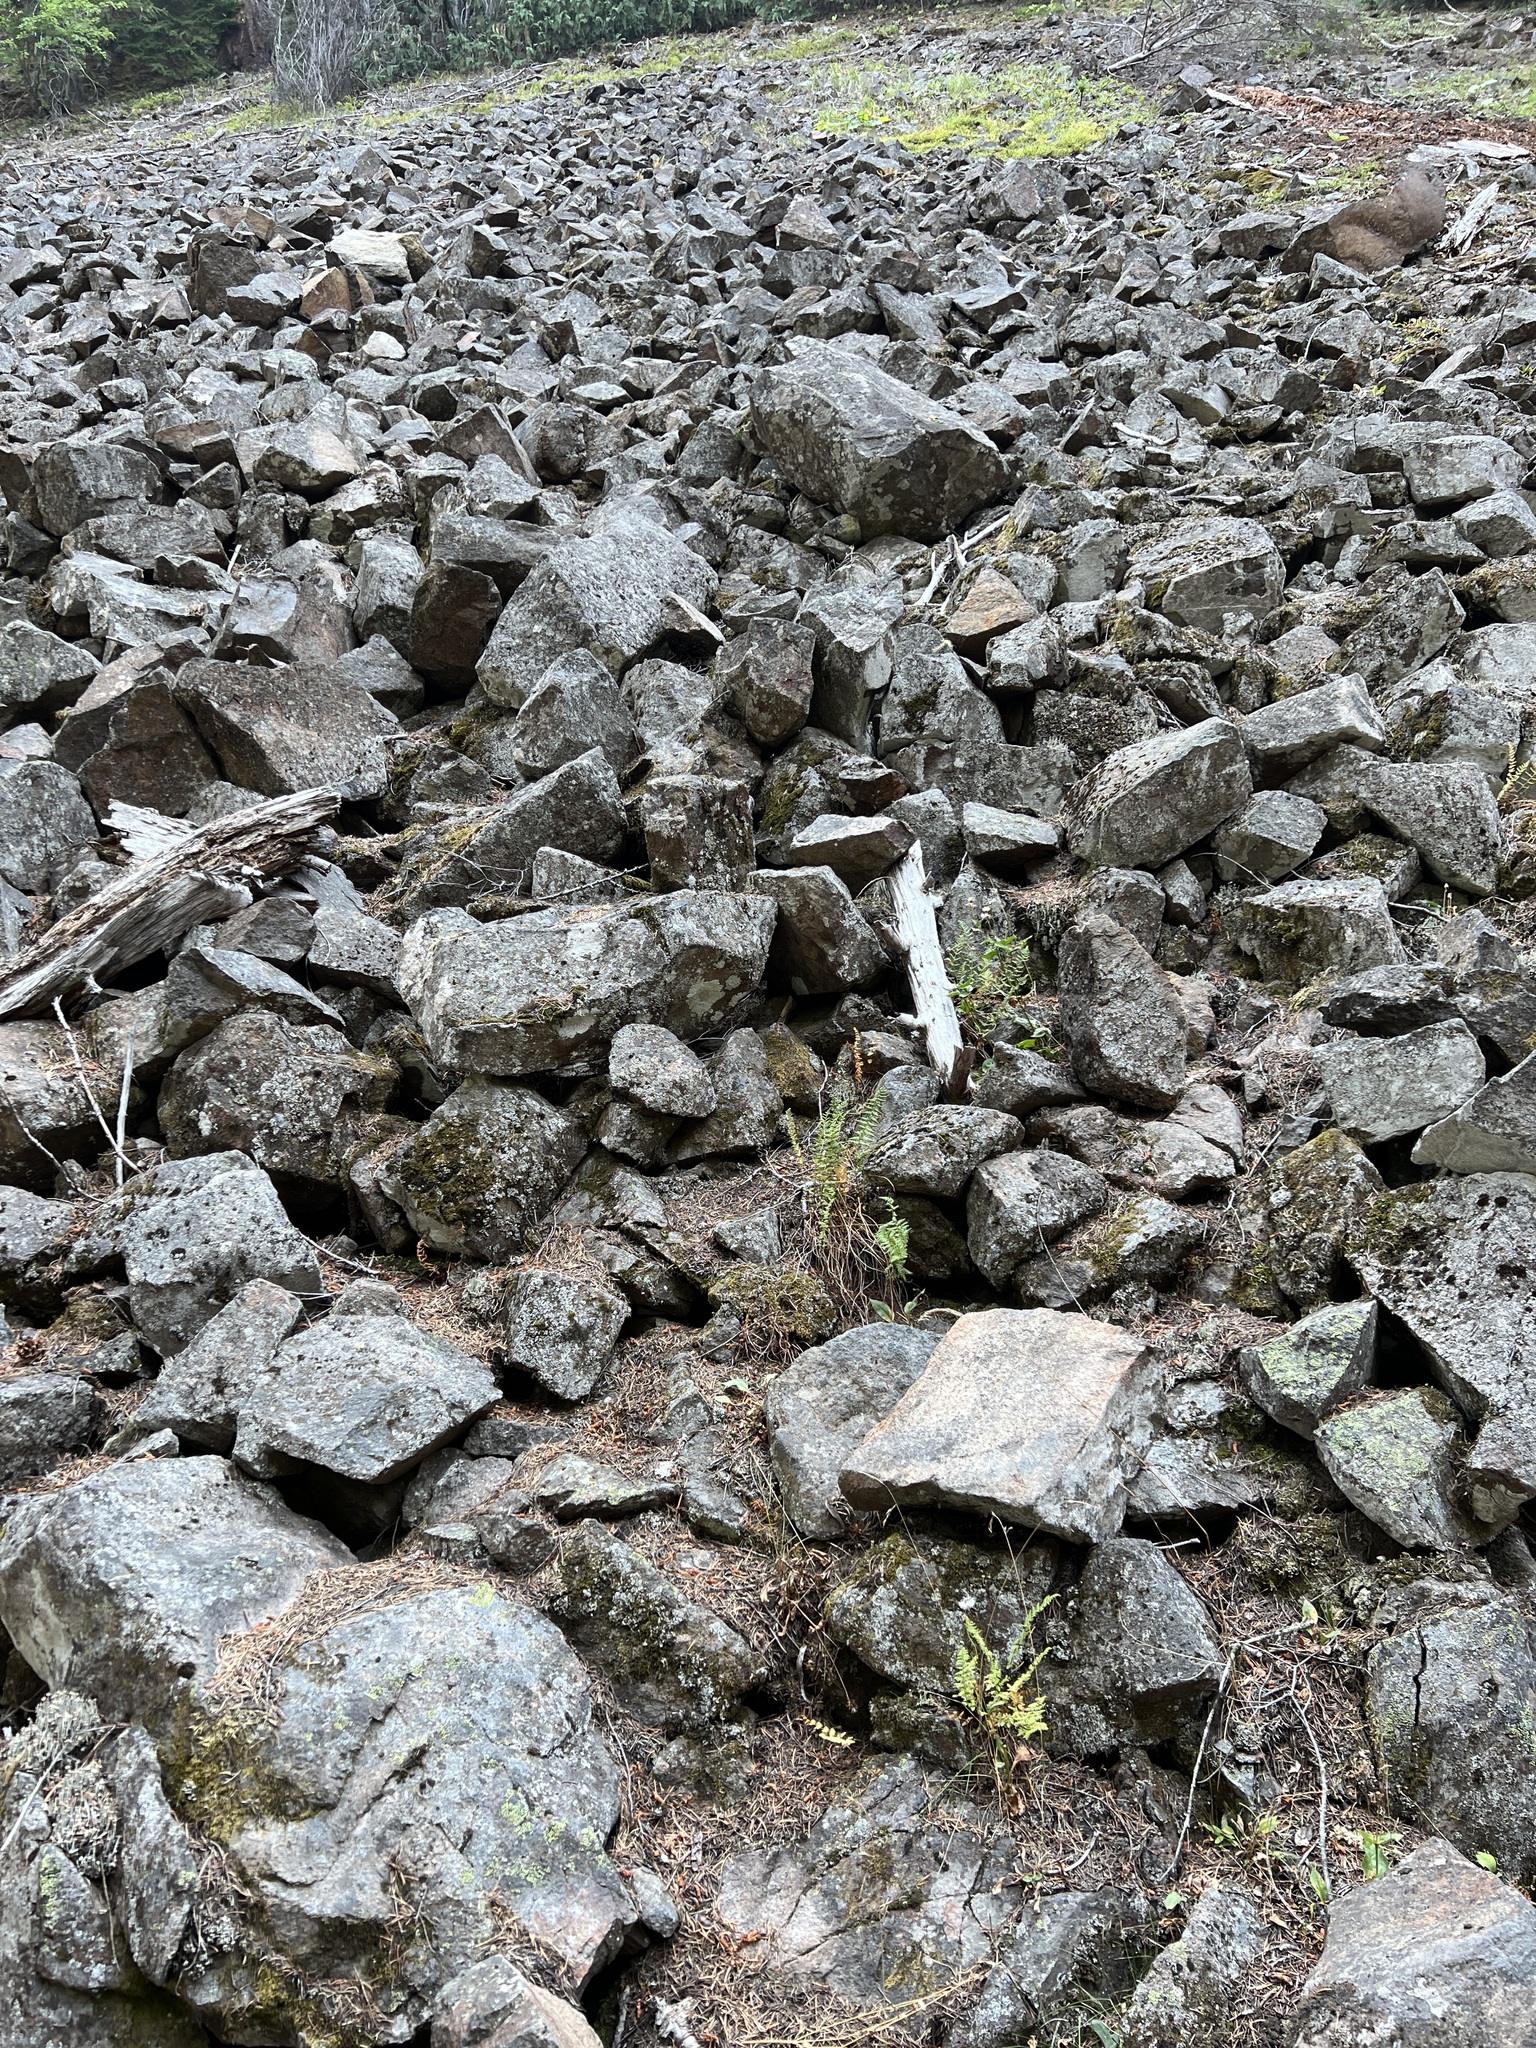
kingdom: Plantae
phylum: Tracheophyta
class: Polypodiopsida
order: Polypodiales
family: Woodsiaceae
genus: Physematium
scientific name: Physematium scopulinum
